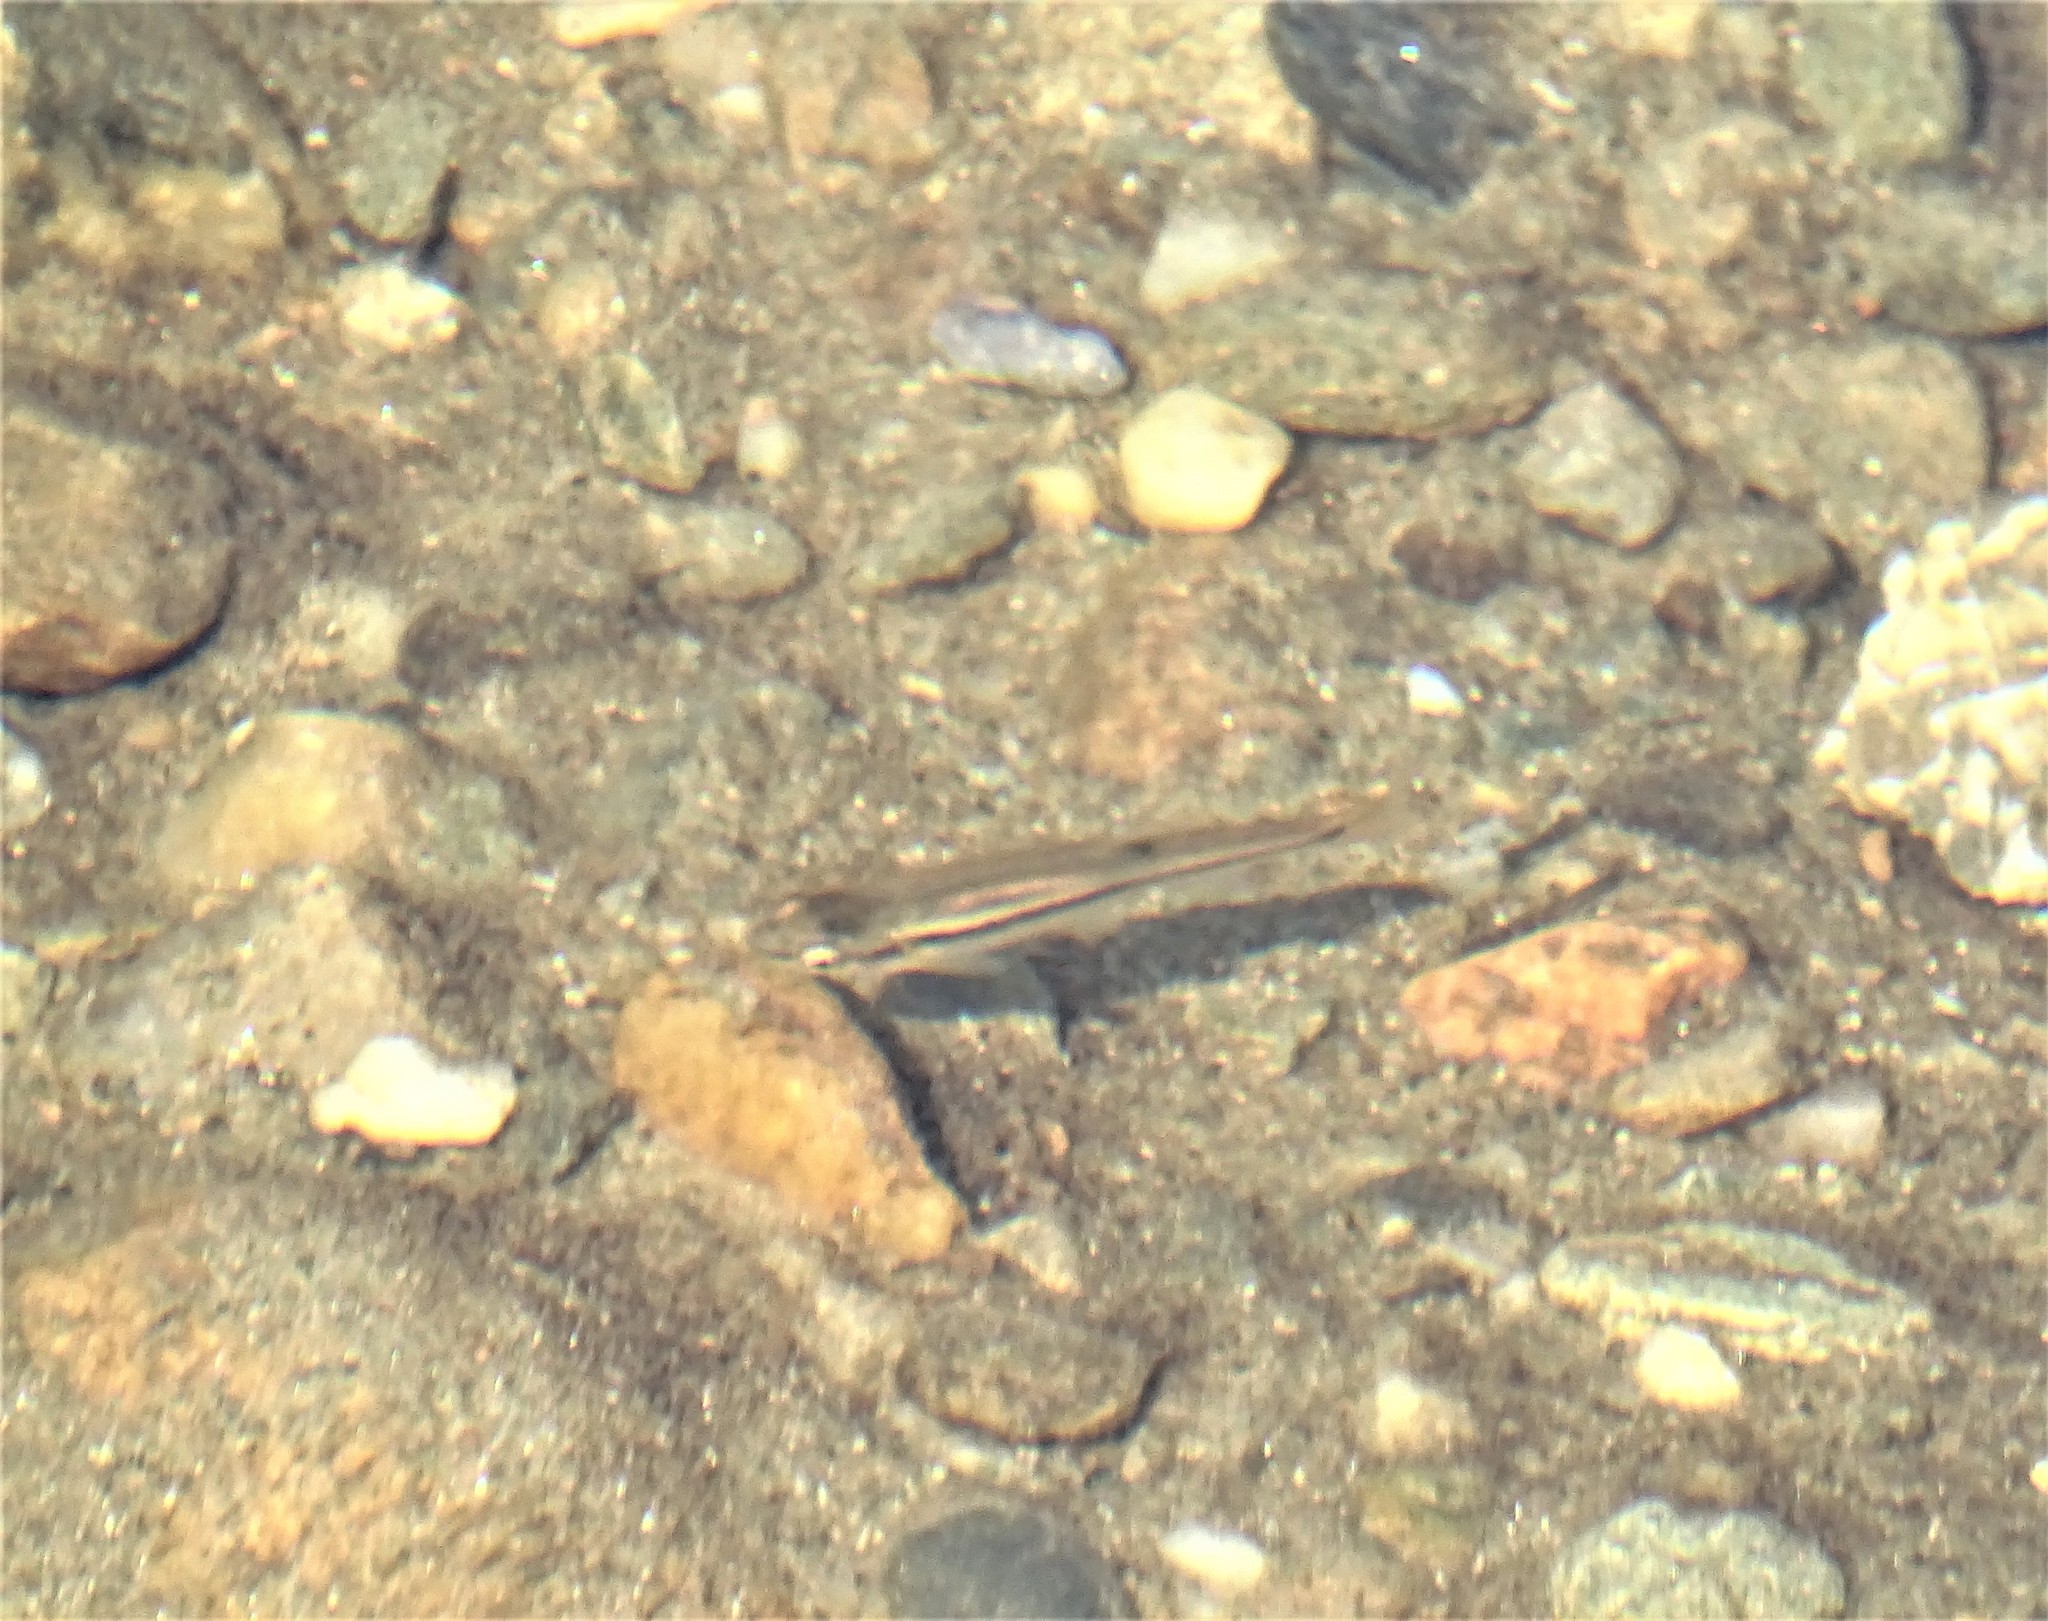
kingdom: Animalia
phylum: Chordata
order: Cypriniformes
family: Cyprinidae
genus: Rhinichthys
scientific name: Rhinichthys atratulus
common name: Eastern blacknose dace
